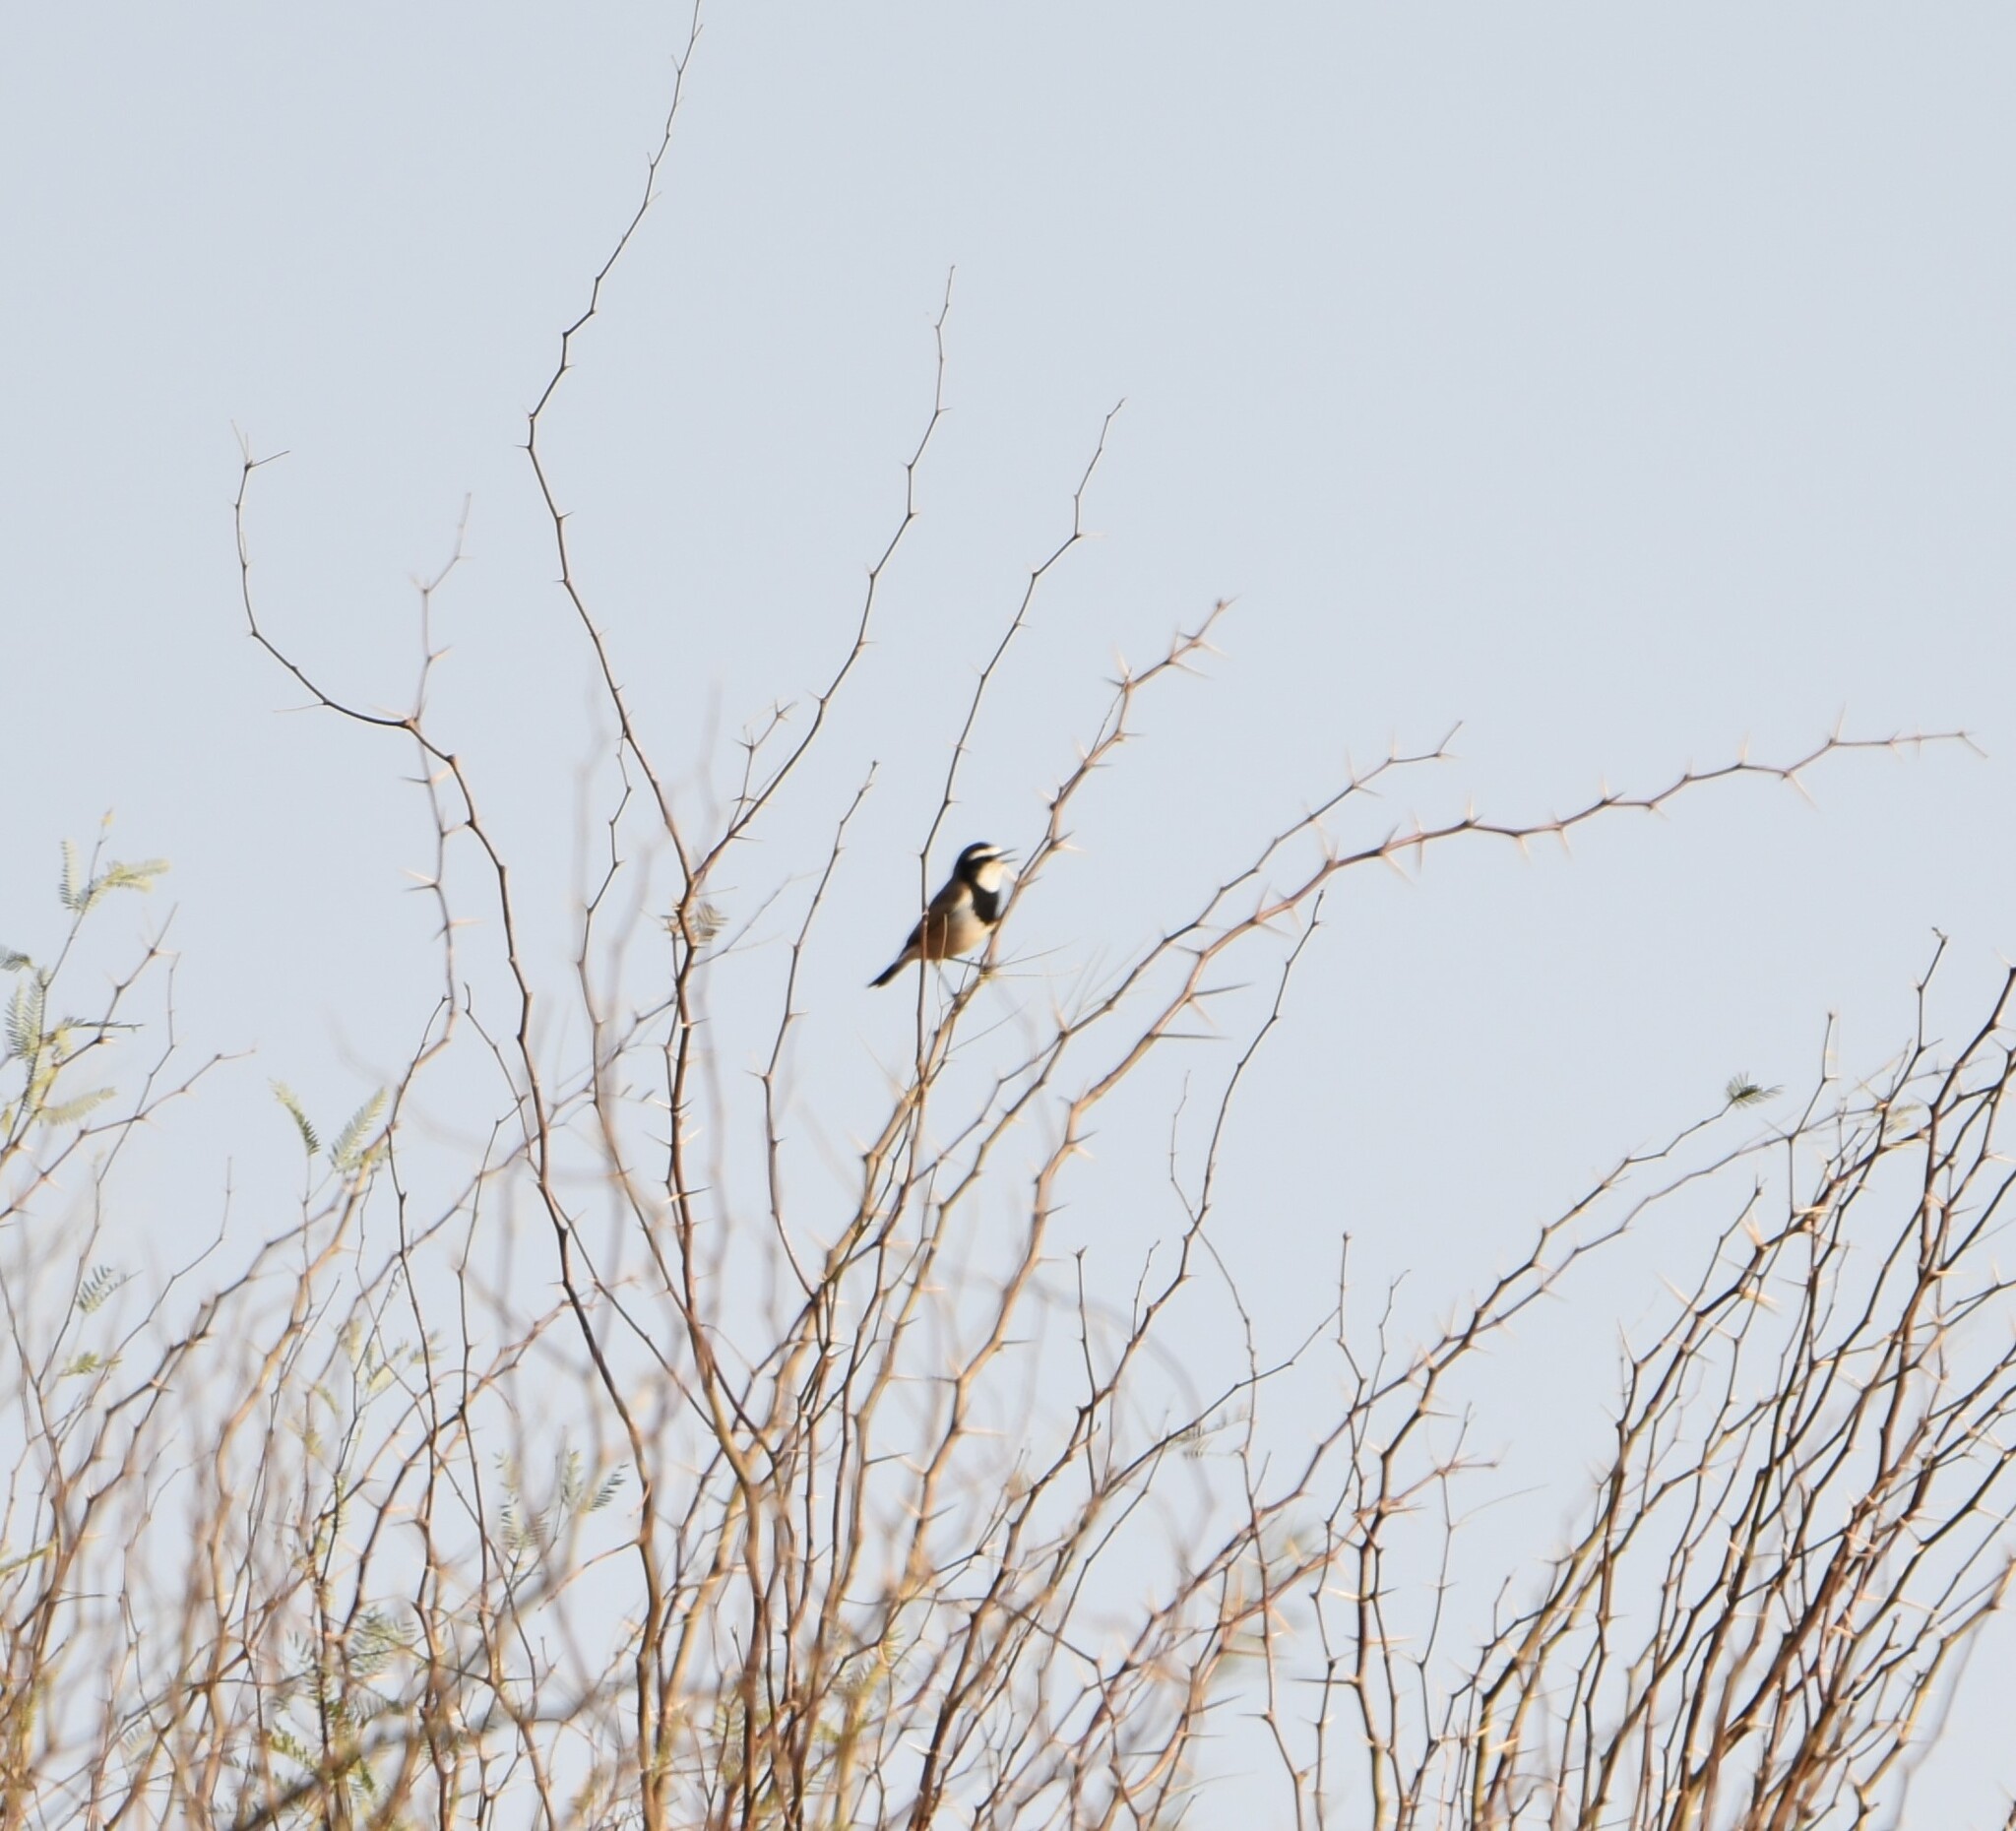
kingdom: Animalia
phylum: Chordata
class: Aves
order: Passeriformes
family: Muscicapidae
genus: Oenanthe
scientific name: Oenanthe pileata
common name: Capped wheatear
